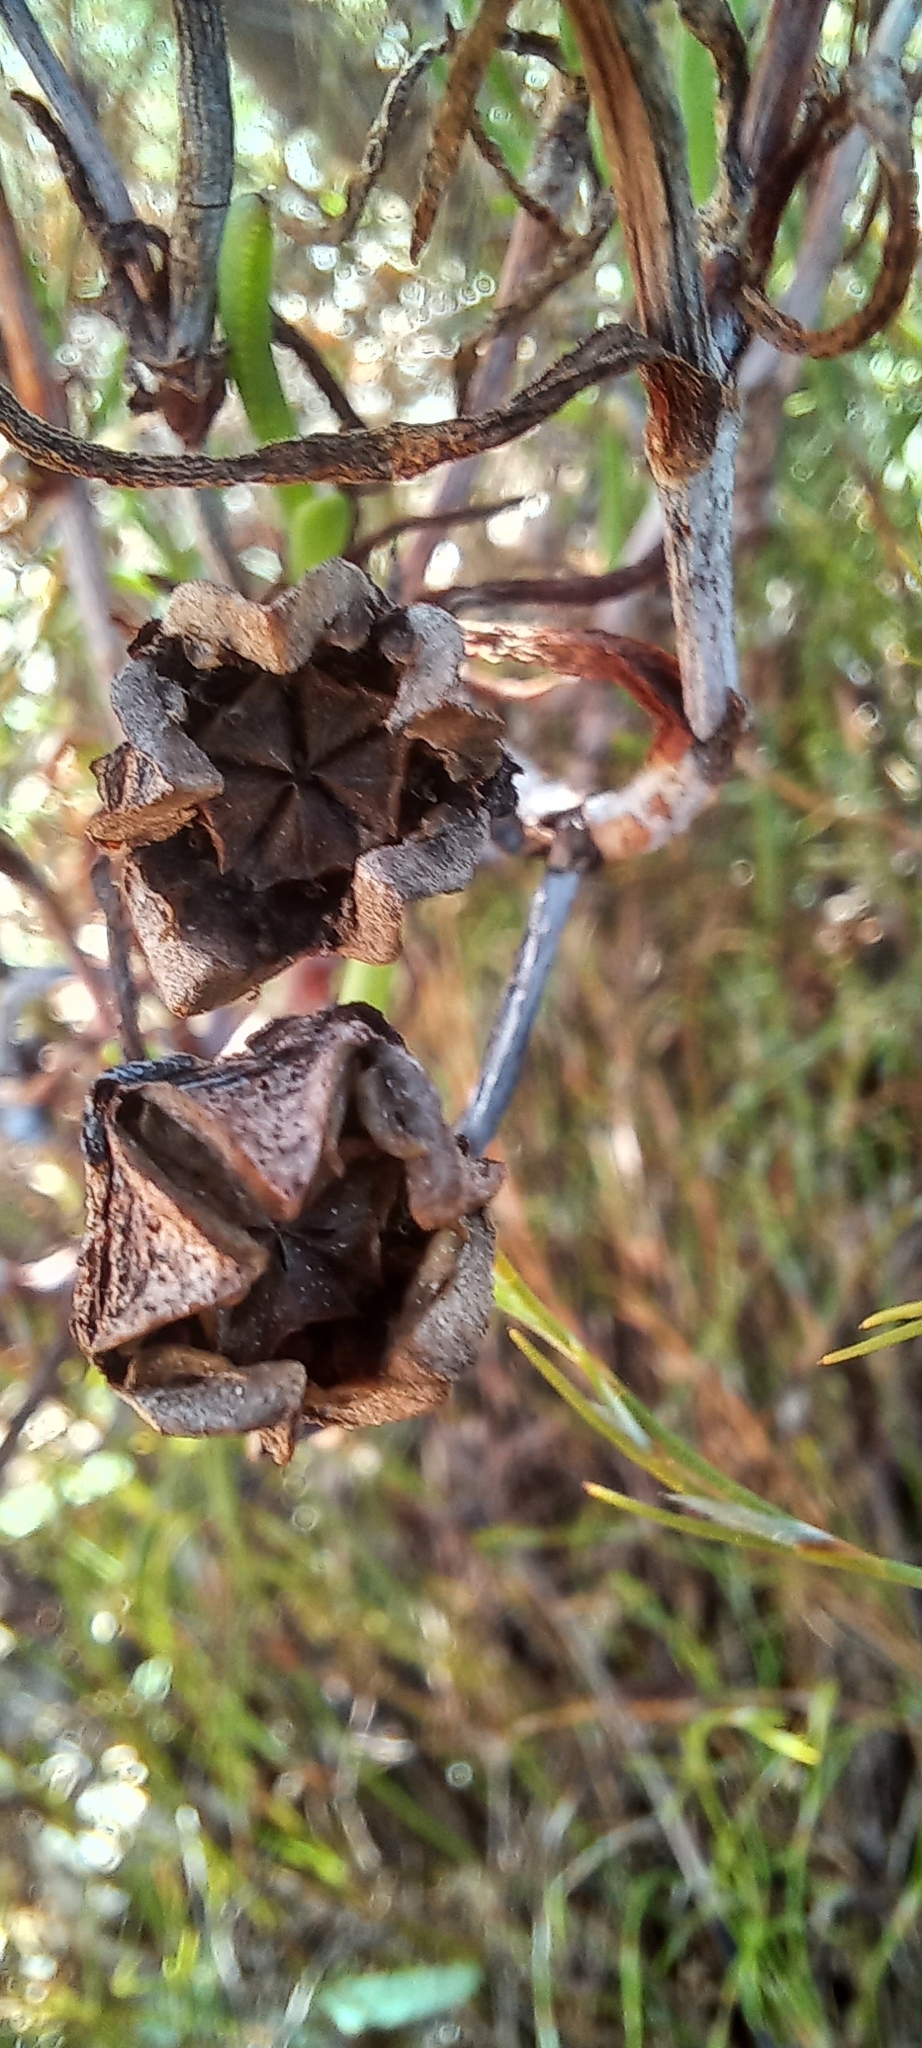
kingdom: Plantae
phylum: Tracheophyta
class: Magnoliopsida
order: Caryophyllales
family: Aizoaceae
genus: Lampranthus
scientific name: Lampranthus bicolor
